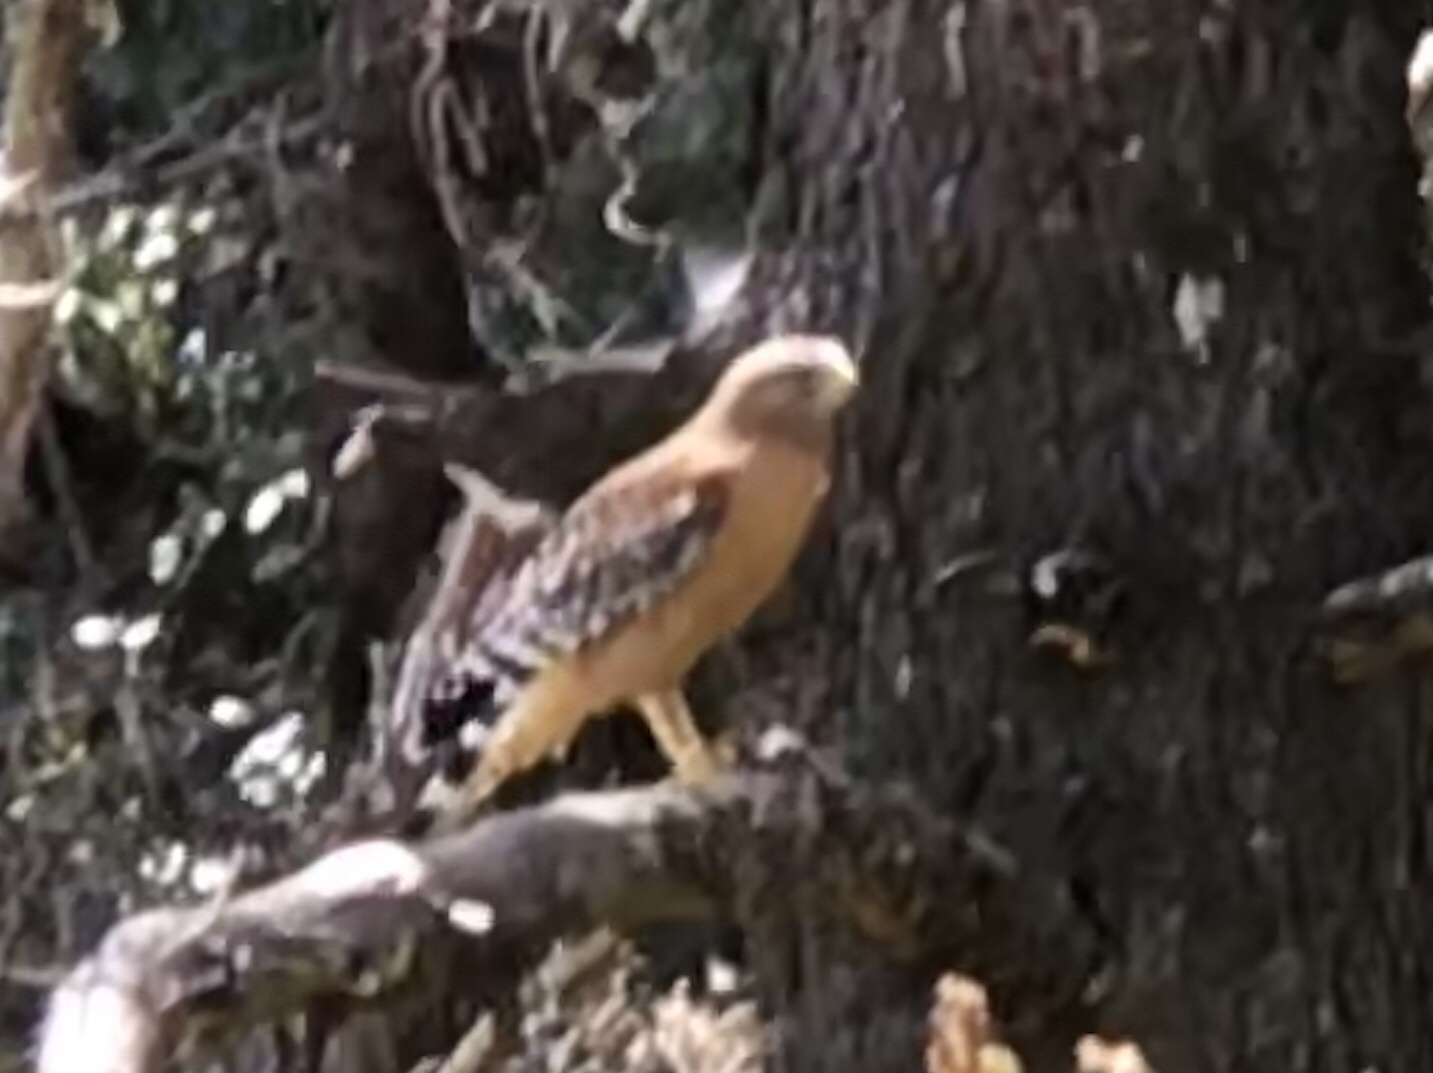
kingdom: Animalia
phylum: Chordata
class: Aves
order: Accipitriformes
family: Accipitridae
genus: Buteo
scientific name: Buteo lineatus
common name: Red-shouldered hawk
